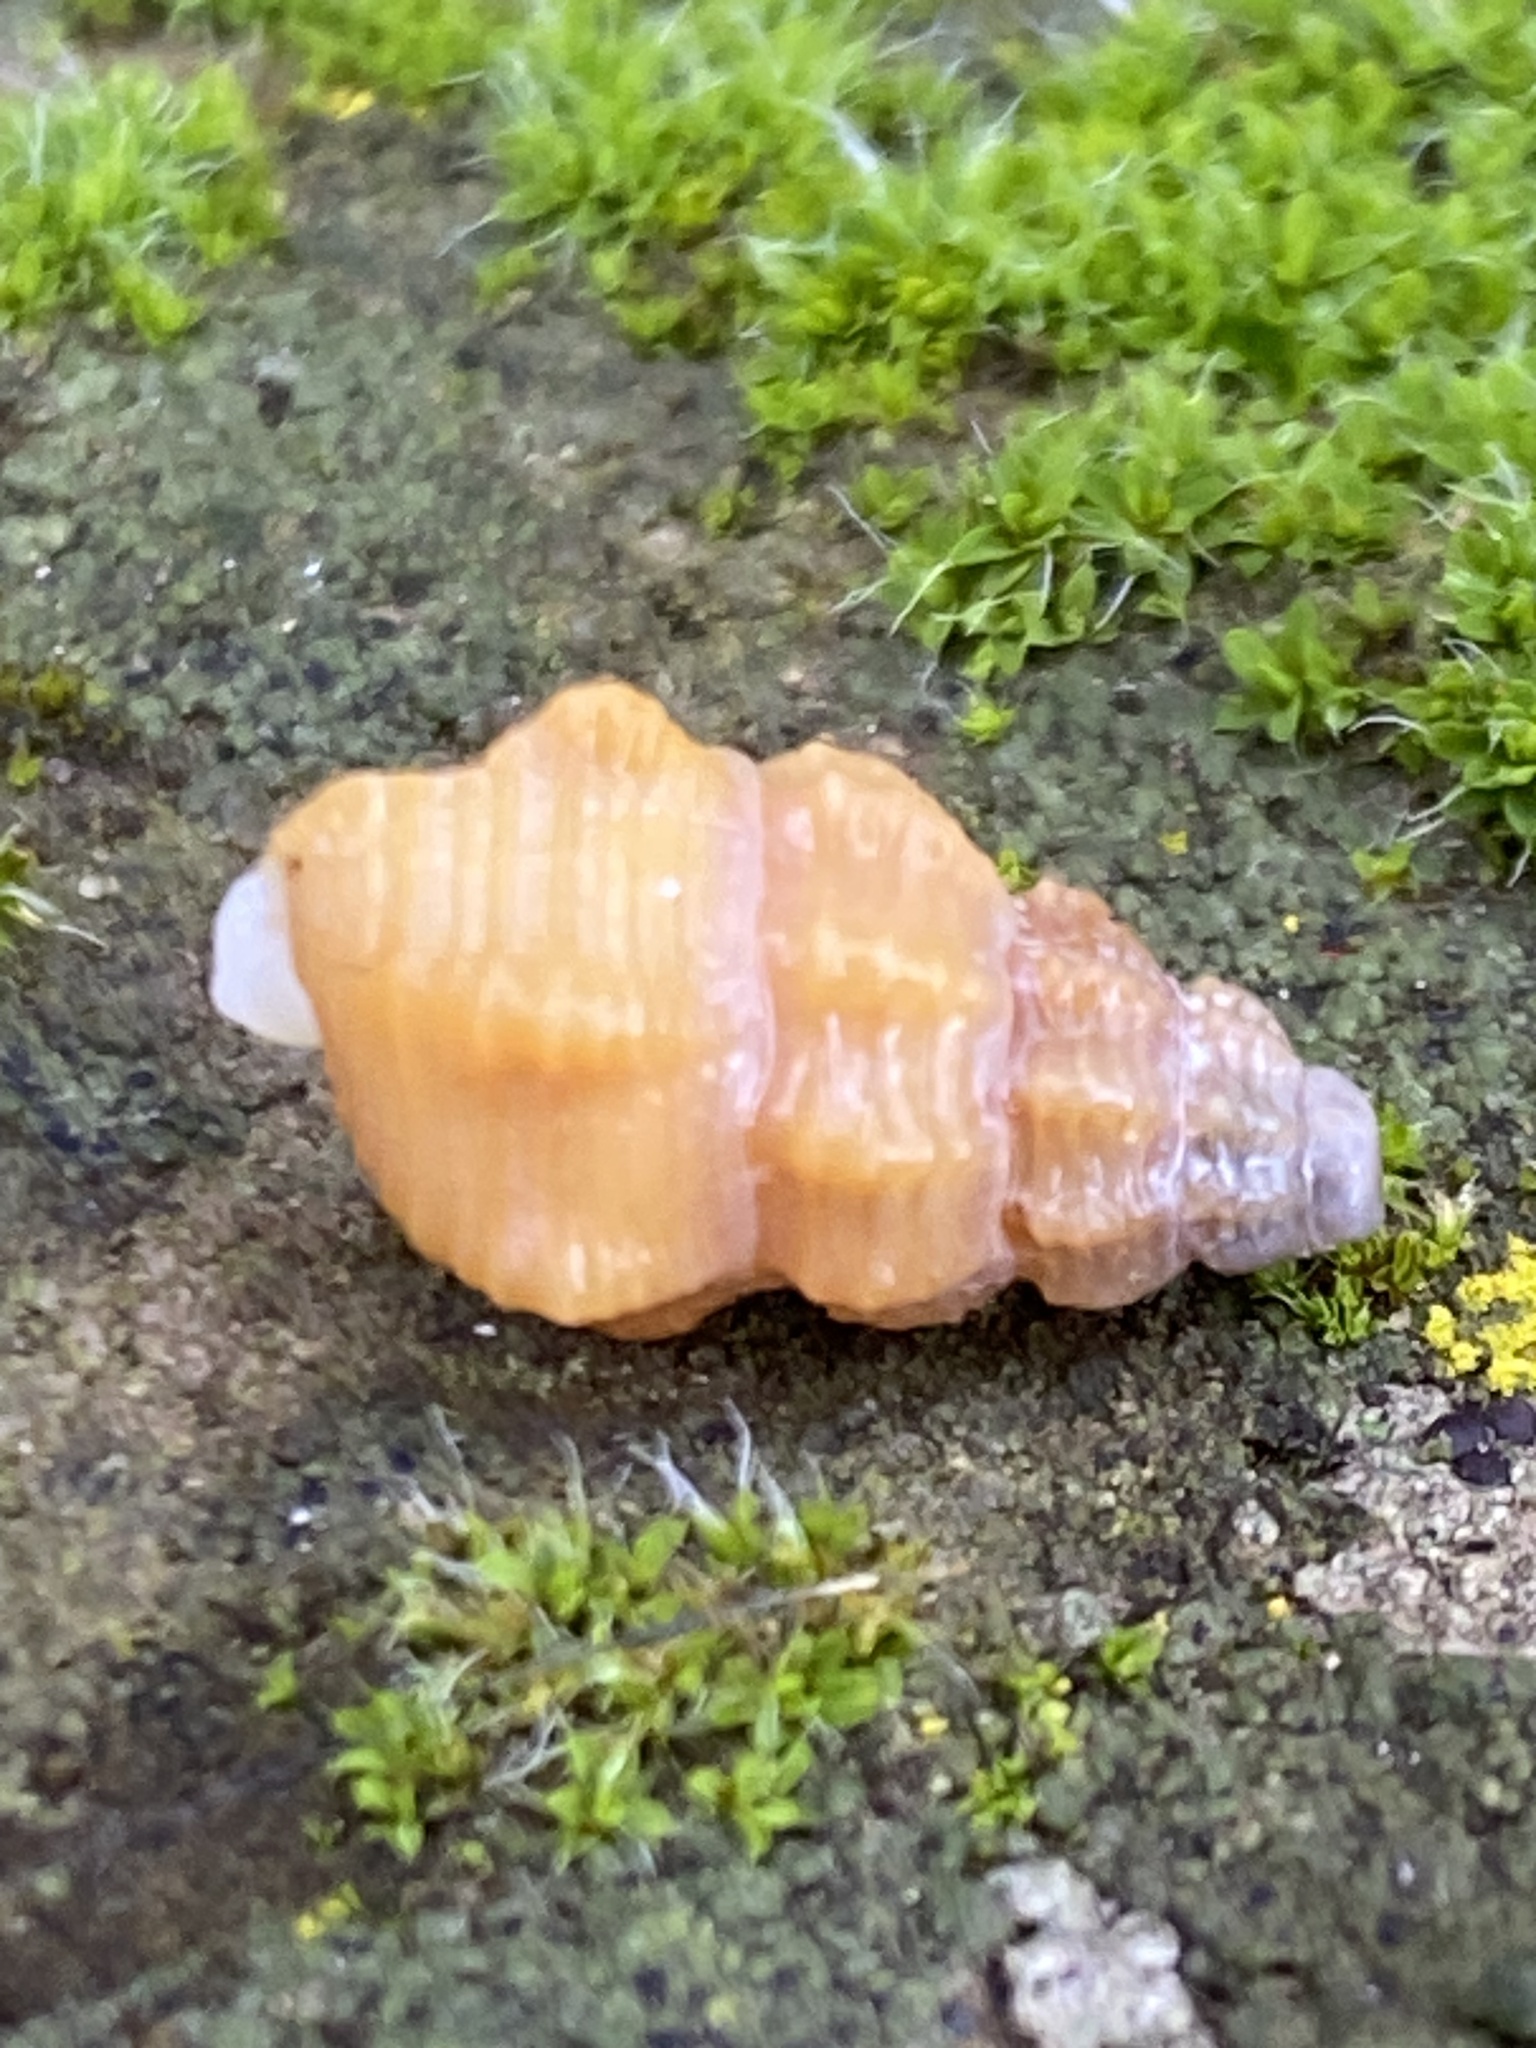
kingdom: Animalia
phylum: Mollusca
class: Gastropoda
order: Neogastropoda
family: Nassariidae
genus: Nassarius
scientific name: Nassarius mendicus
